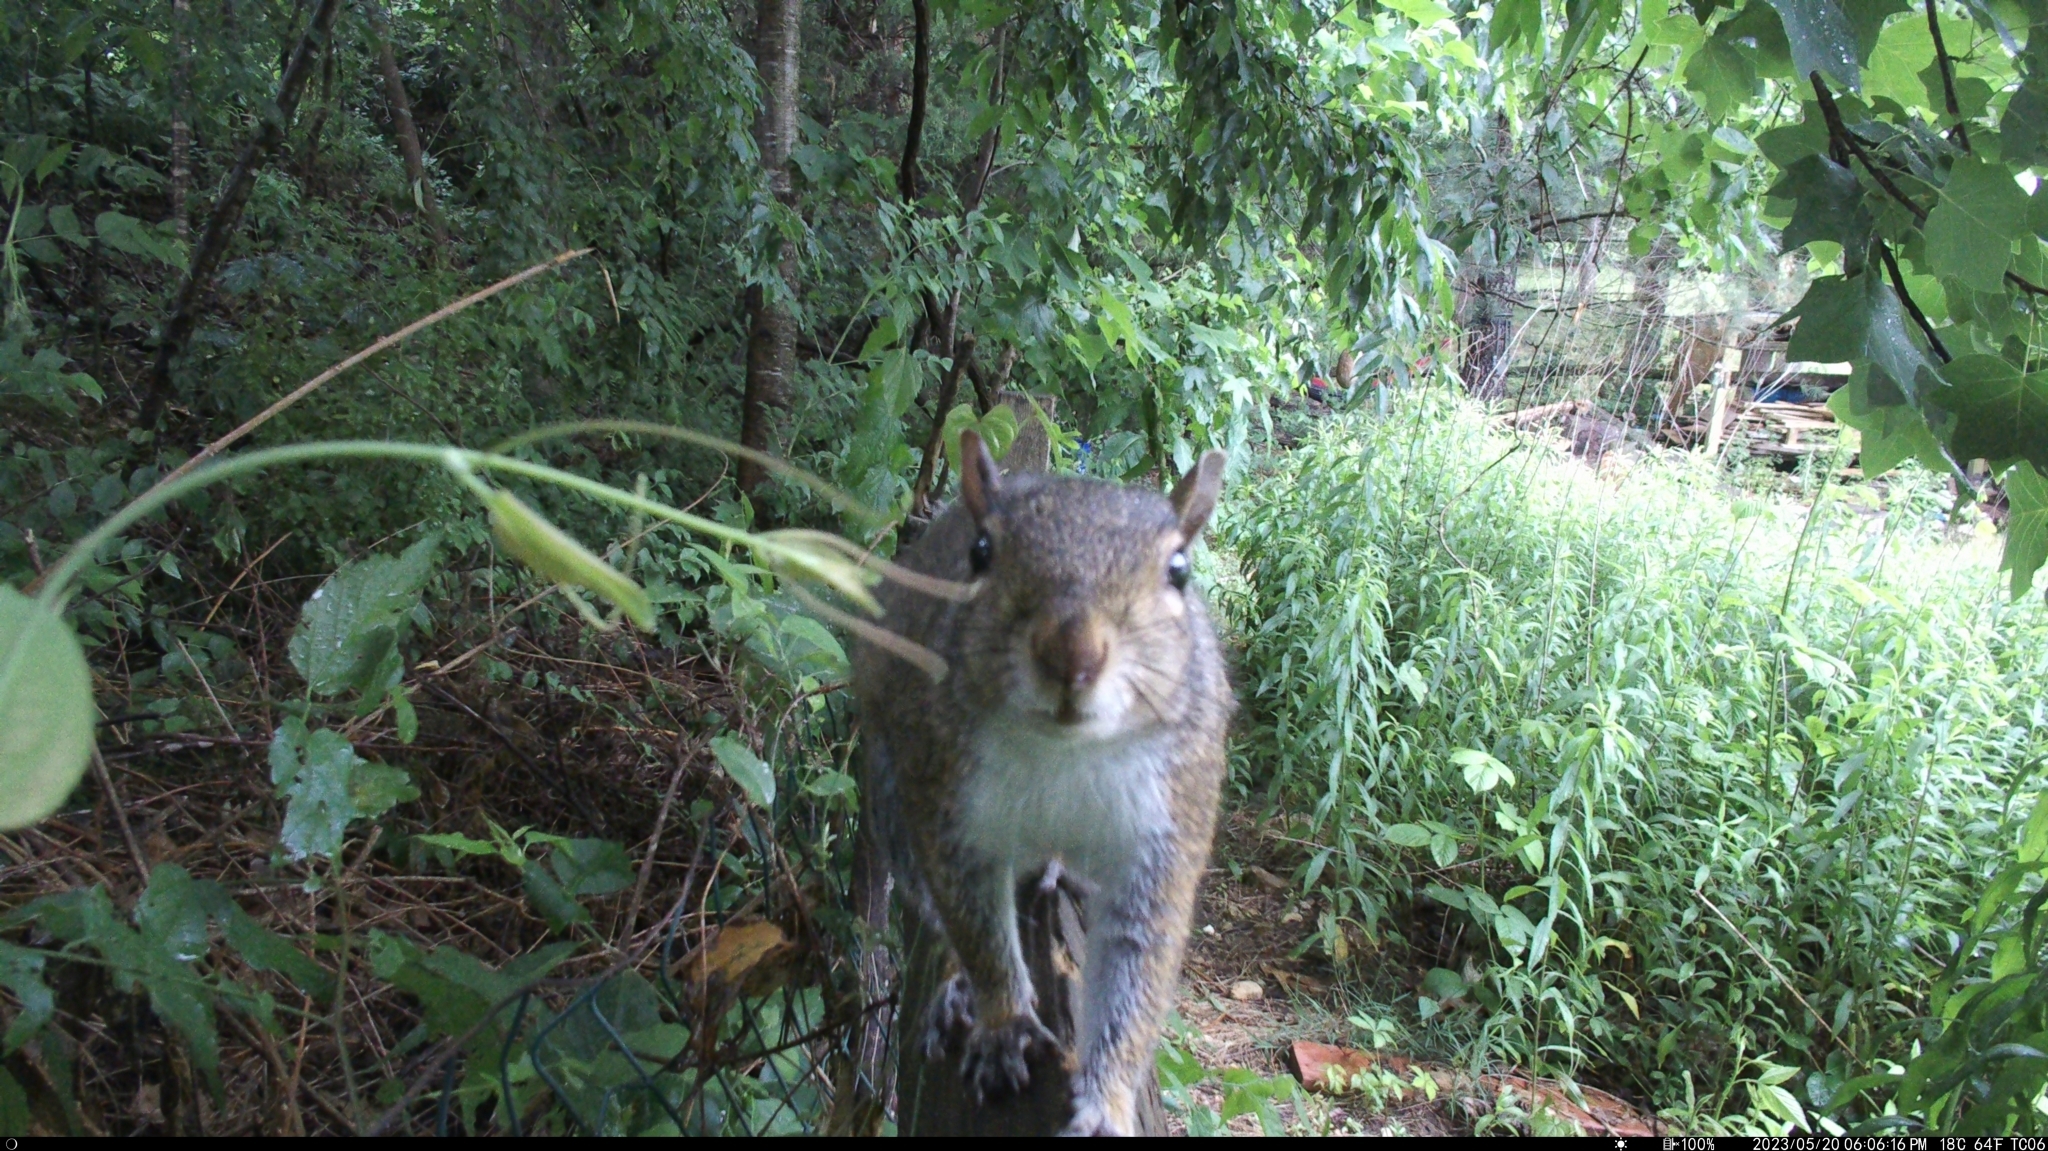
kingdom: Animalia
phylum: Chordata
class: Mammalia
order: Rodentia
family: Sciuridae
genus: Sciurus
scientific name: Sciurus carolinensis
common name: Eastern gray squirrel
